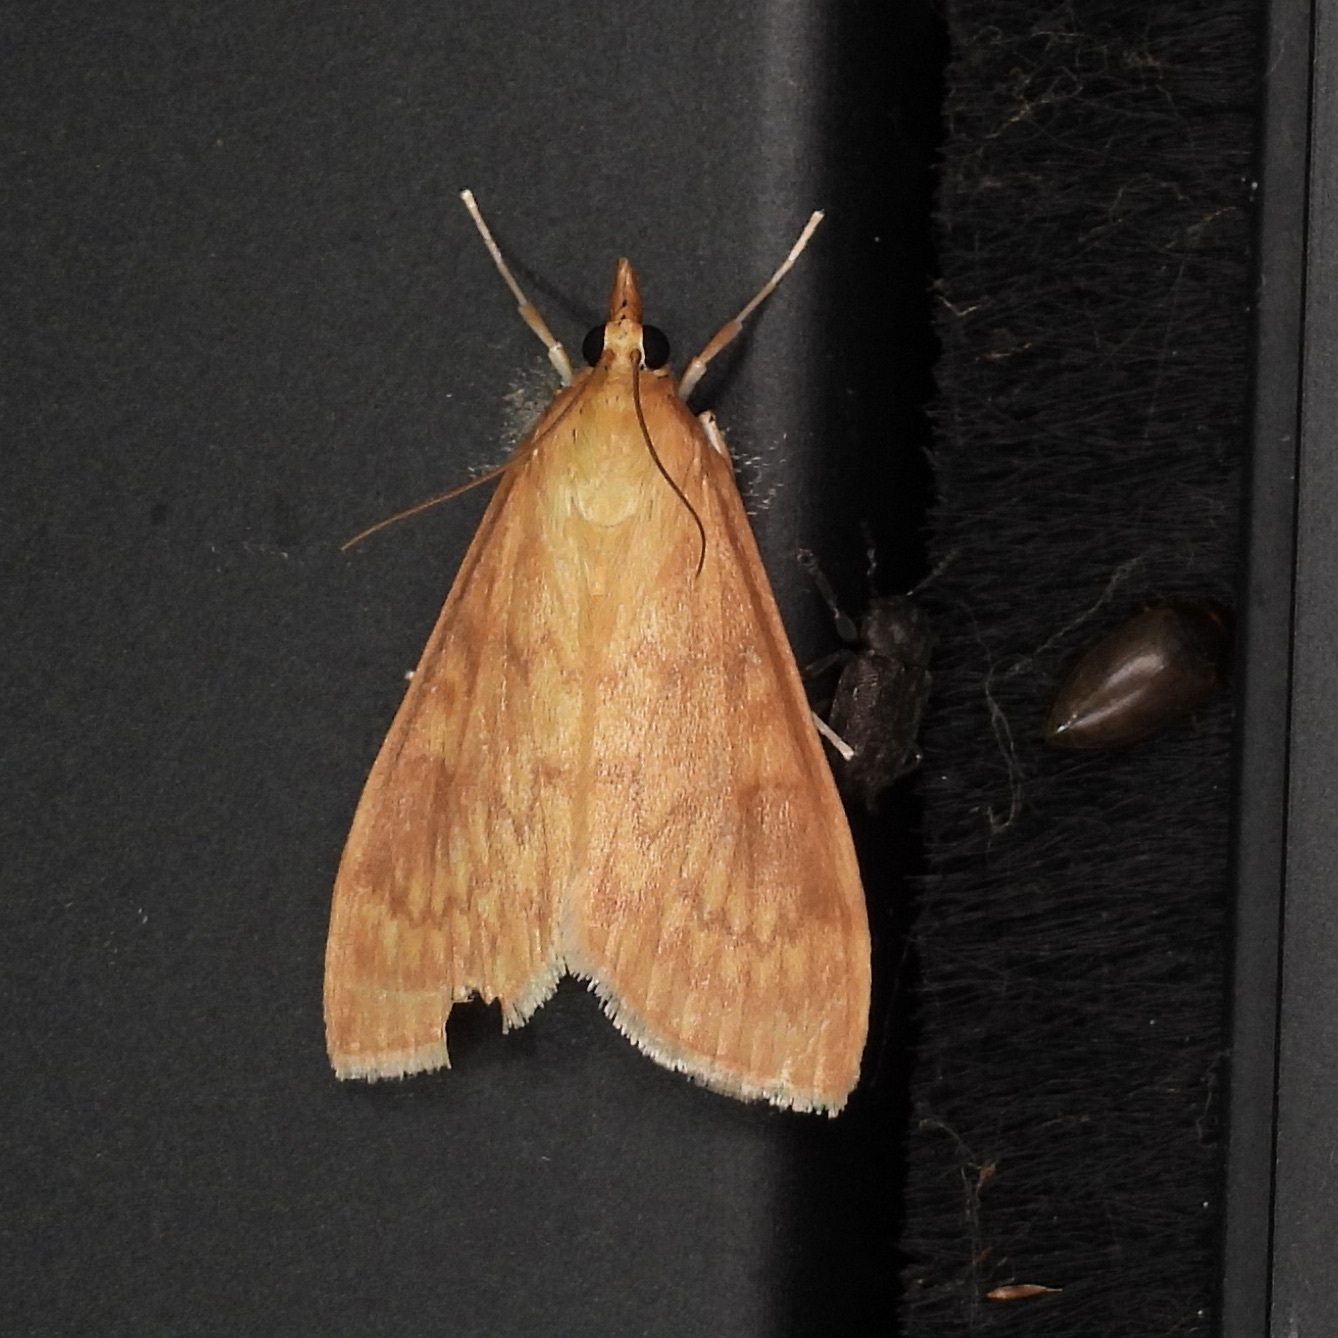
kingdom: Animalia
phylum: Arthropoda
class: Insecta
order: Lepidoptera
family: Crambidae
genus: Ostrinia
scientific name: Ostrinia penitalis
